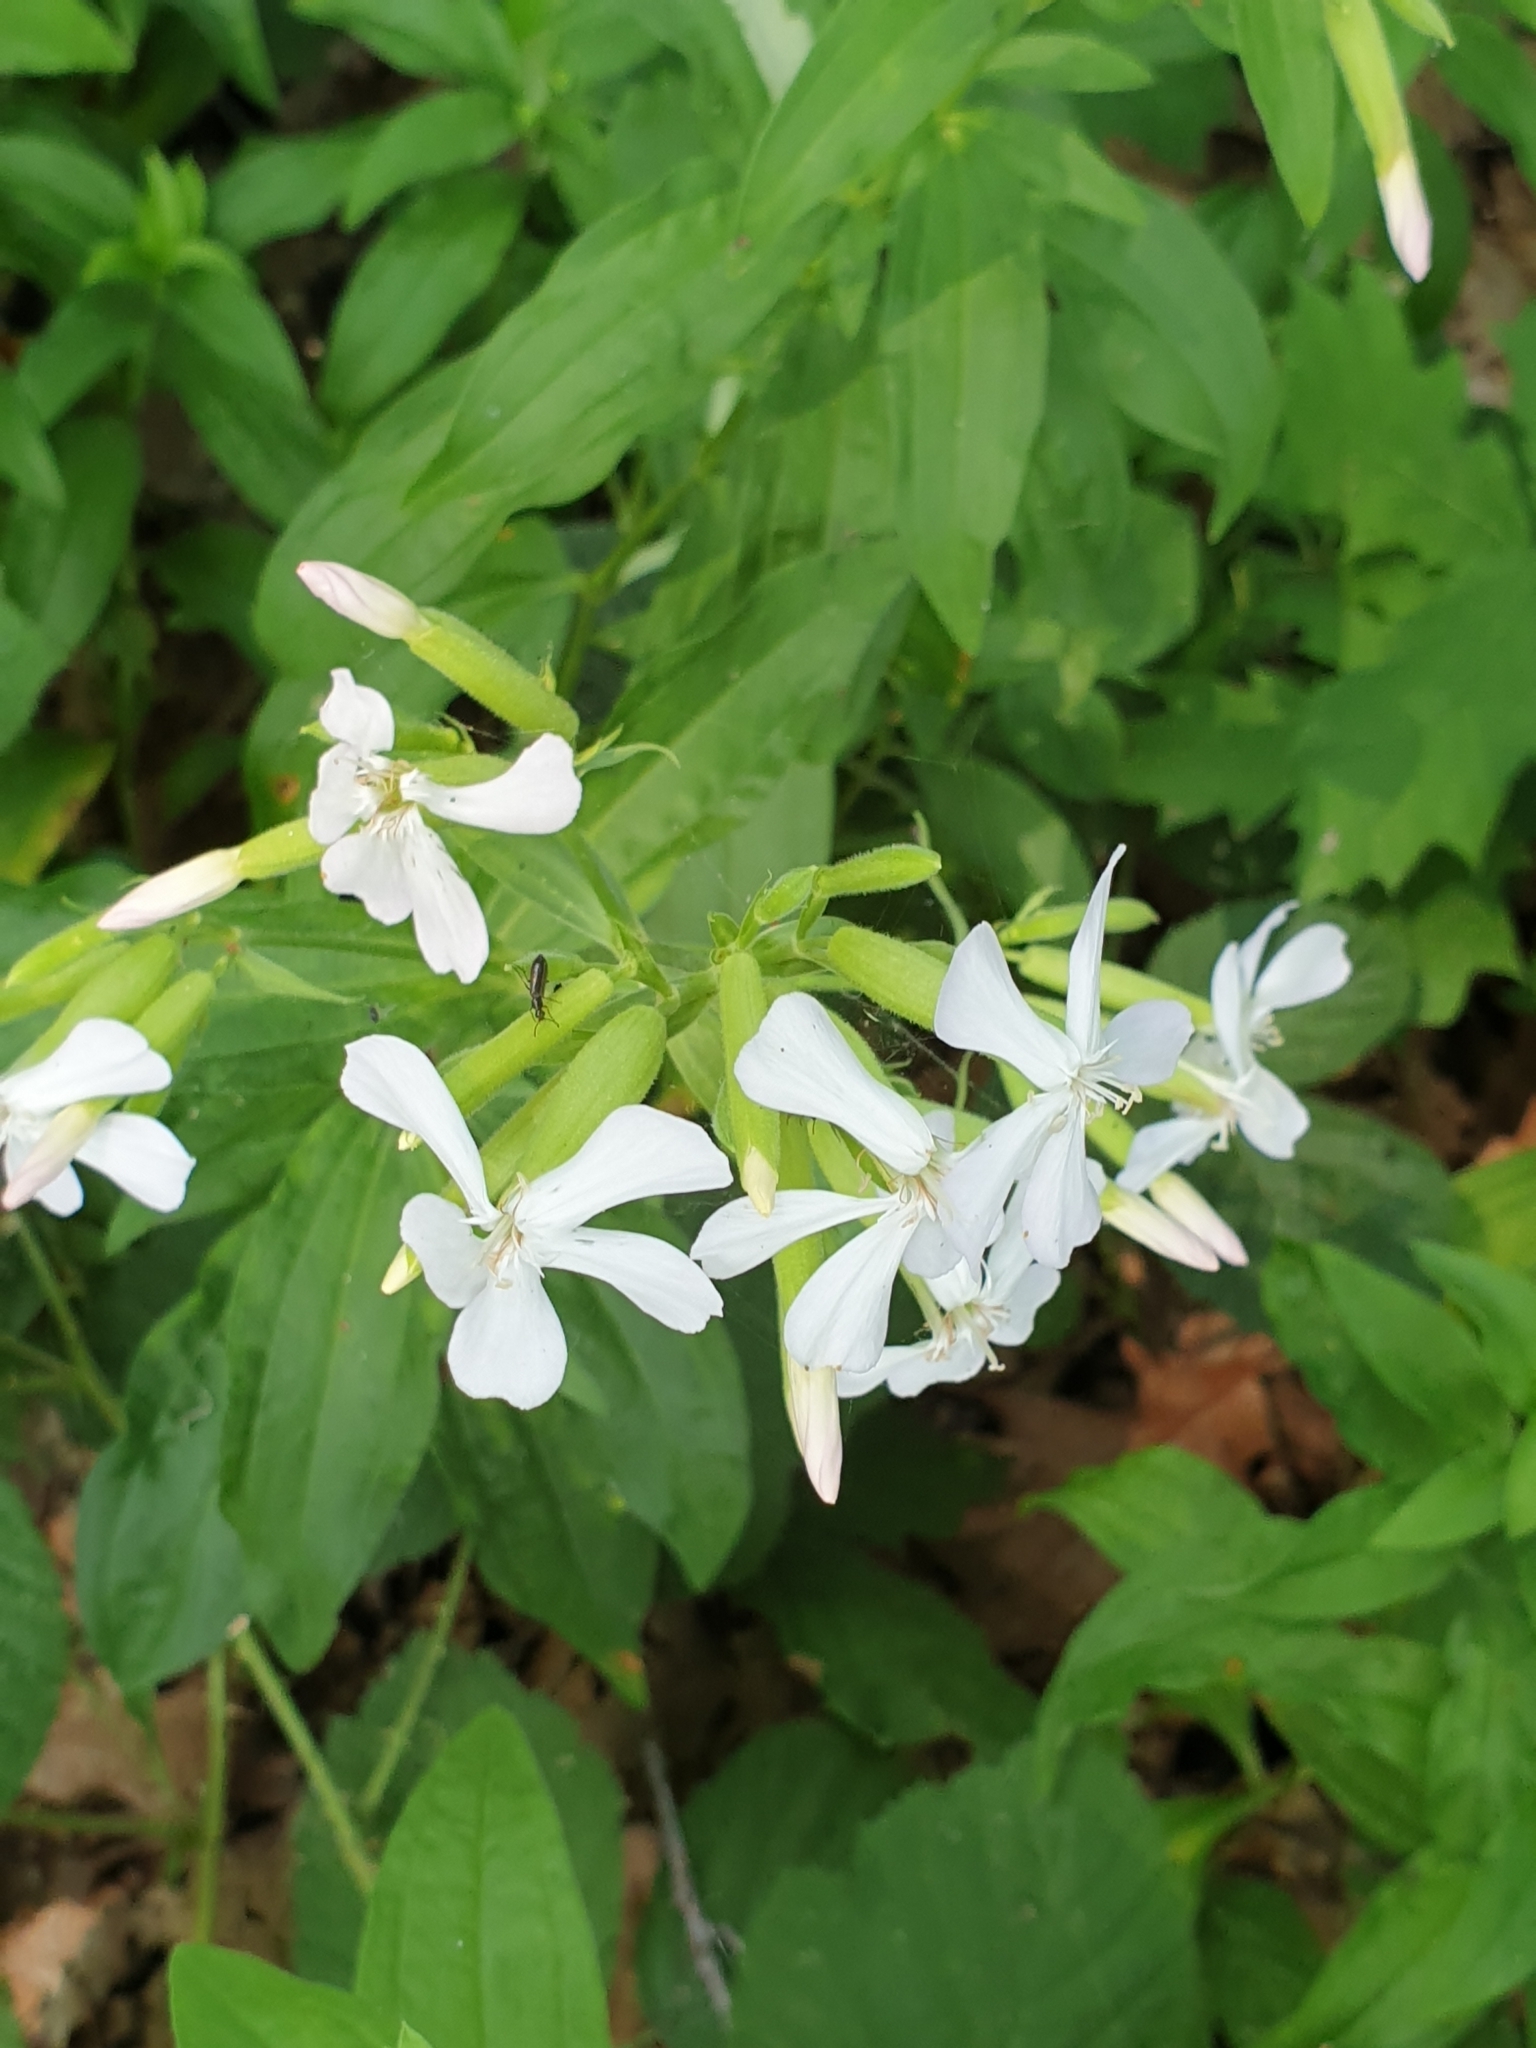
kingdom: Plantae
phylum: Tracheophyta
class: Magnoliopsida
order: Caryophyllales
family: Caryophyllaceae
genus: Saponaria
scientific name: Saponaria officinalis
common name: Soapwort
